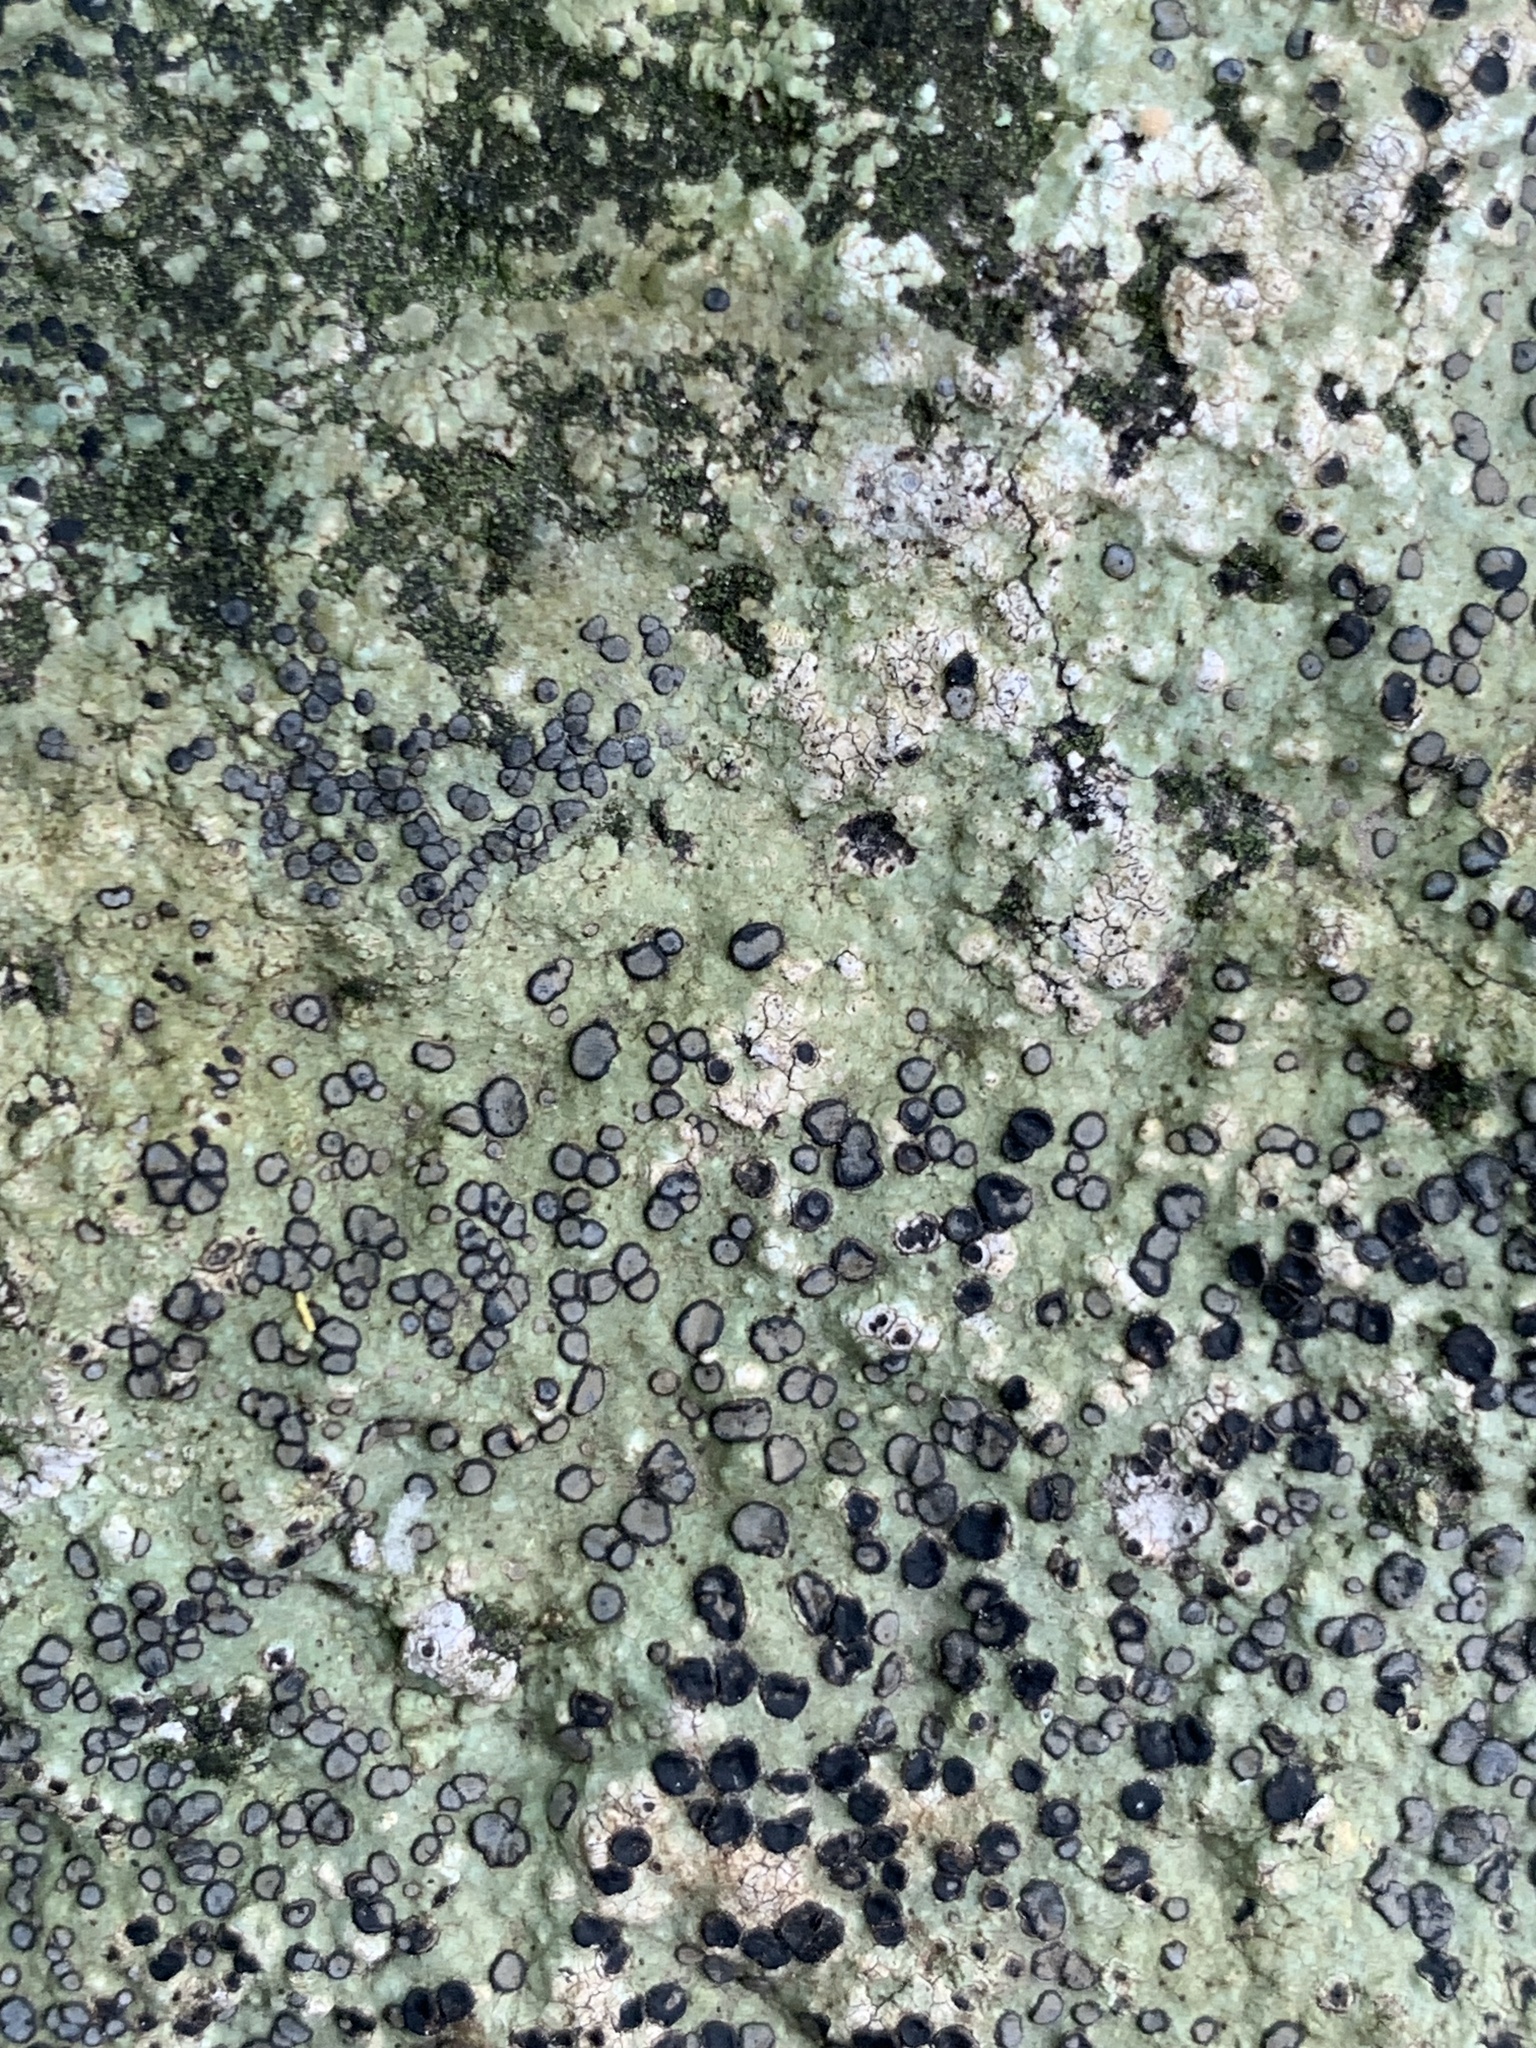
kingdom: Fungi
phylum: Ascomycota
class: Lecanoromycetes
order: Lecideales
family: Lecideaceae
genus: Porpidia
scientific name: Porpidia albocaerulescens
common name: Smokey-eyed boulder lichen
